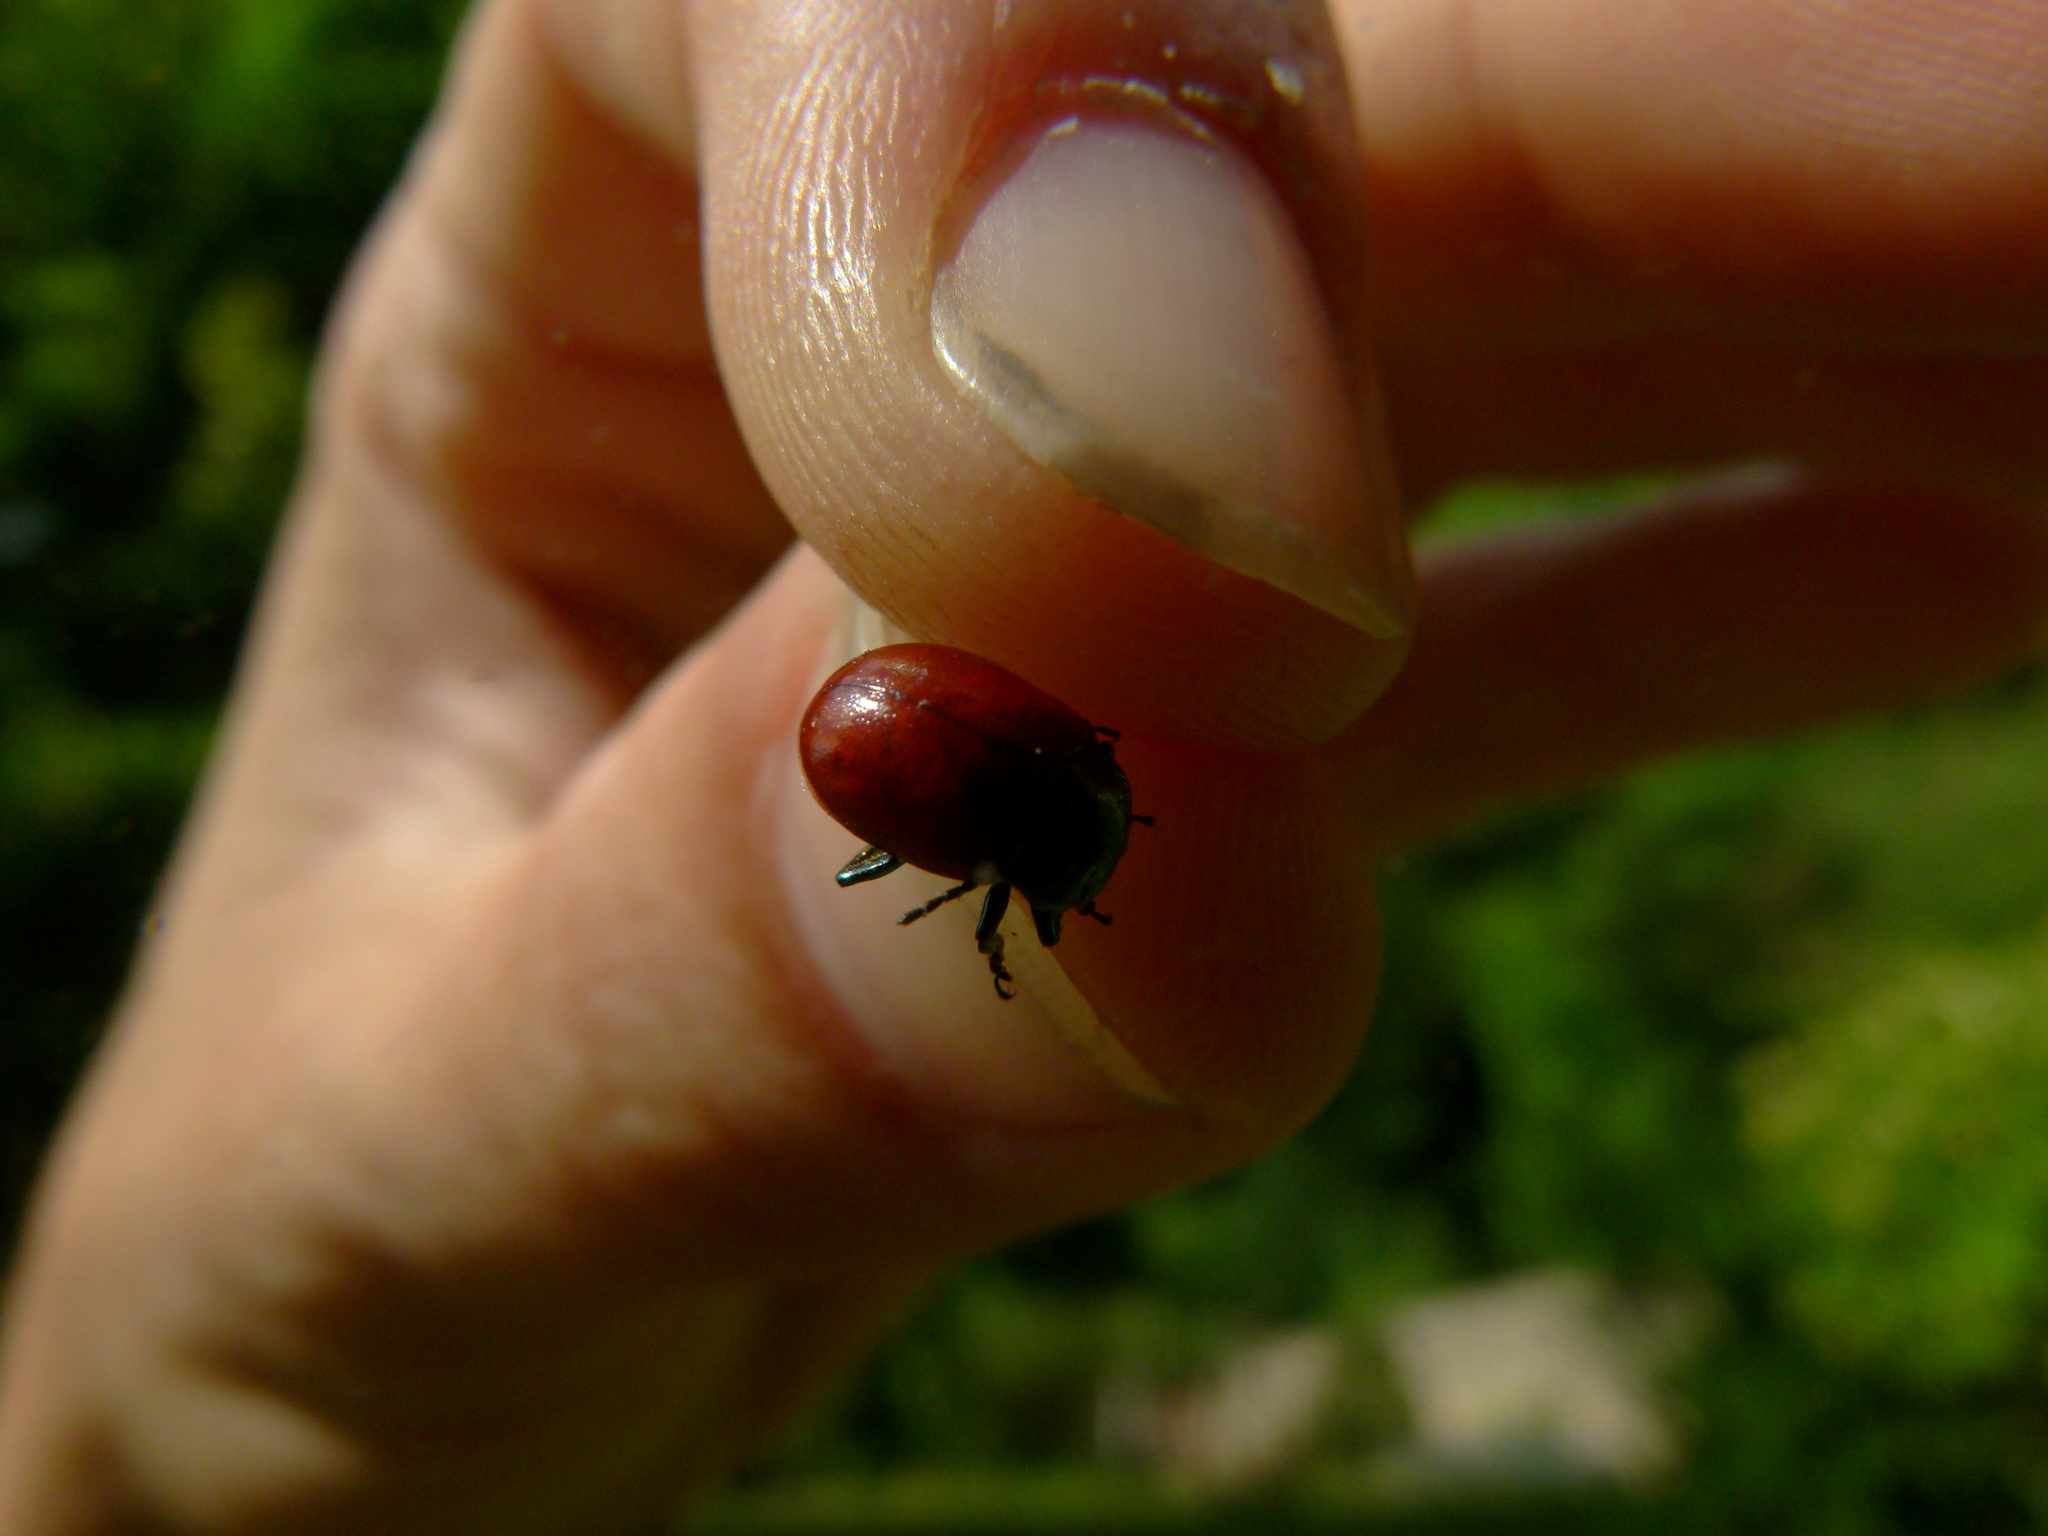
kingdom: Animalia
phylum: Arthropoda
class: Insecta
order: Coleoptera
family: Chrysomelidae
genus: Chrysomela
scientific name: Chrysomela polita
